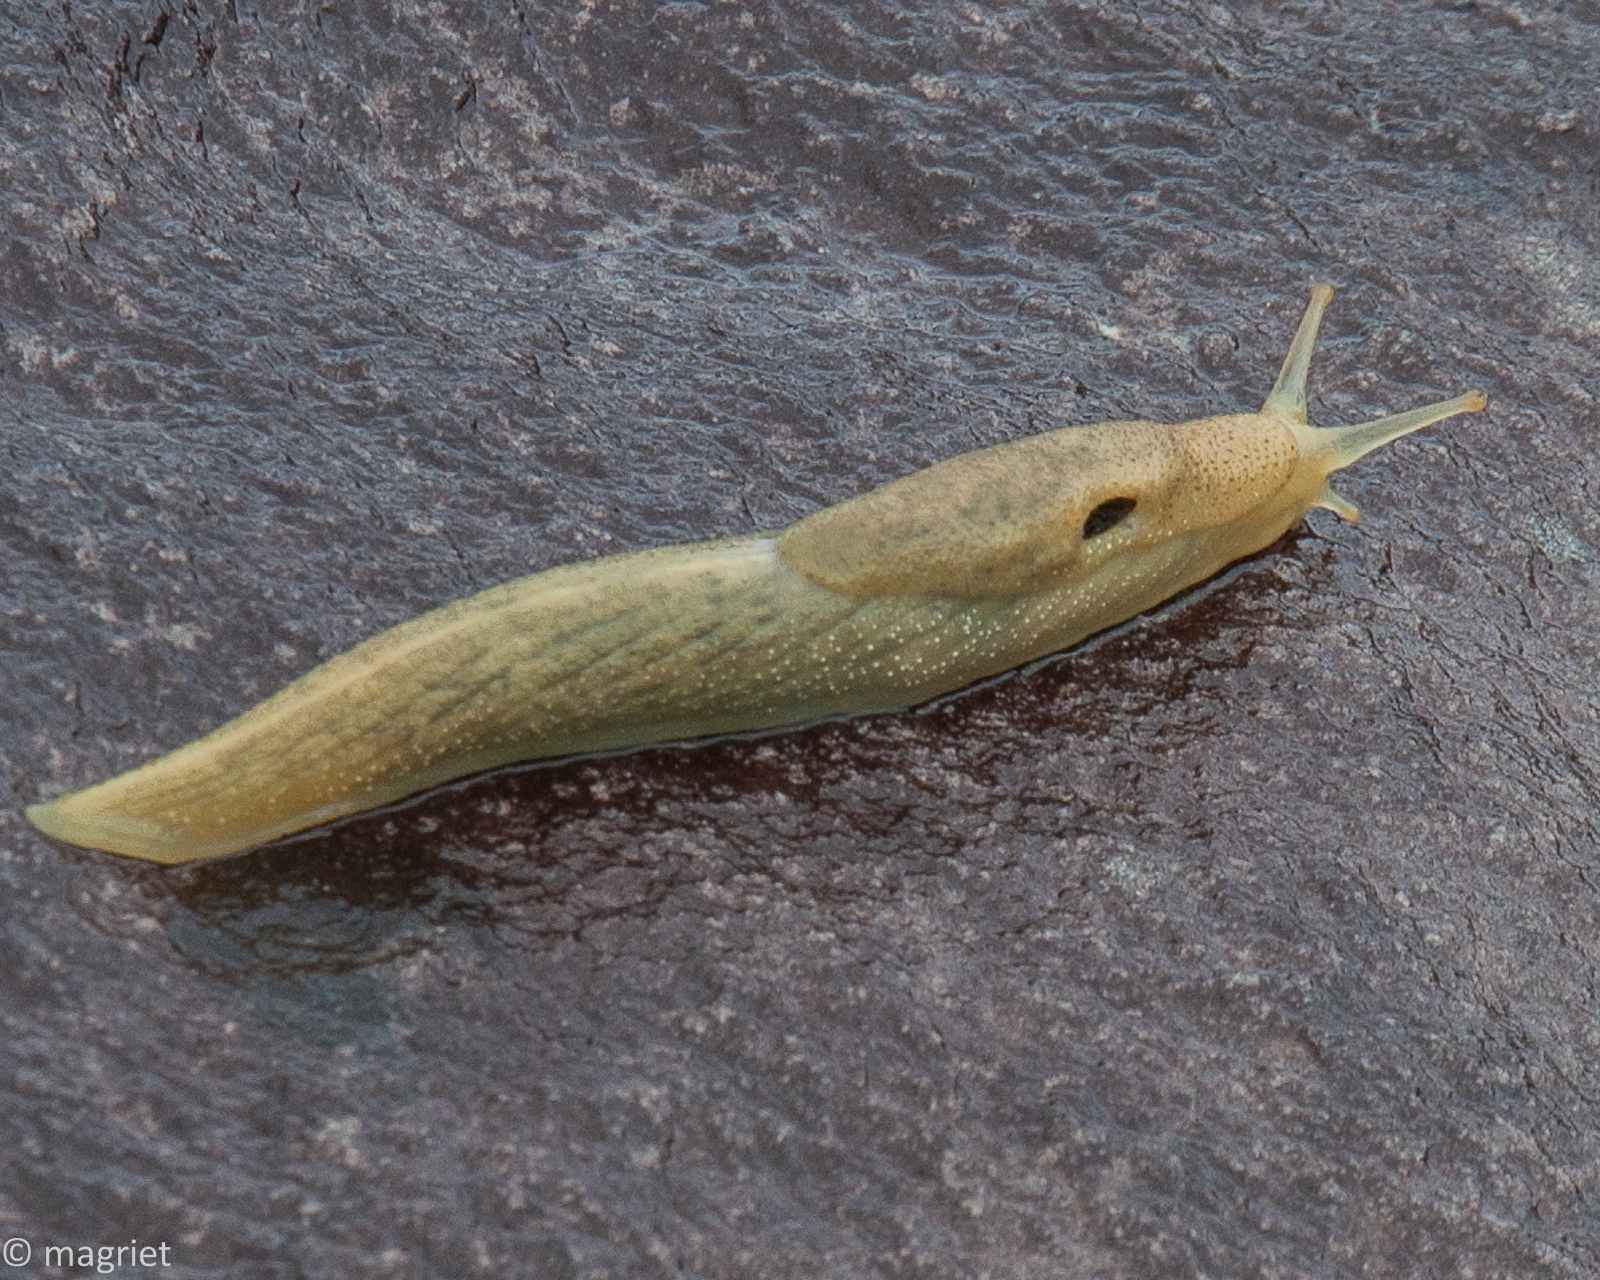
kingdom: Animalia
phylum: Mollusca
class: Gastropoda
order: Stylommatophora
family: Oopeltidae
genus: Oopelta
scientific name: Oopelta flavescens
